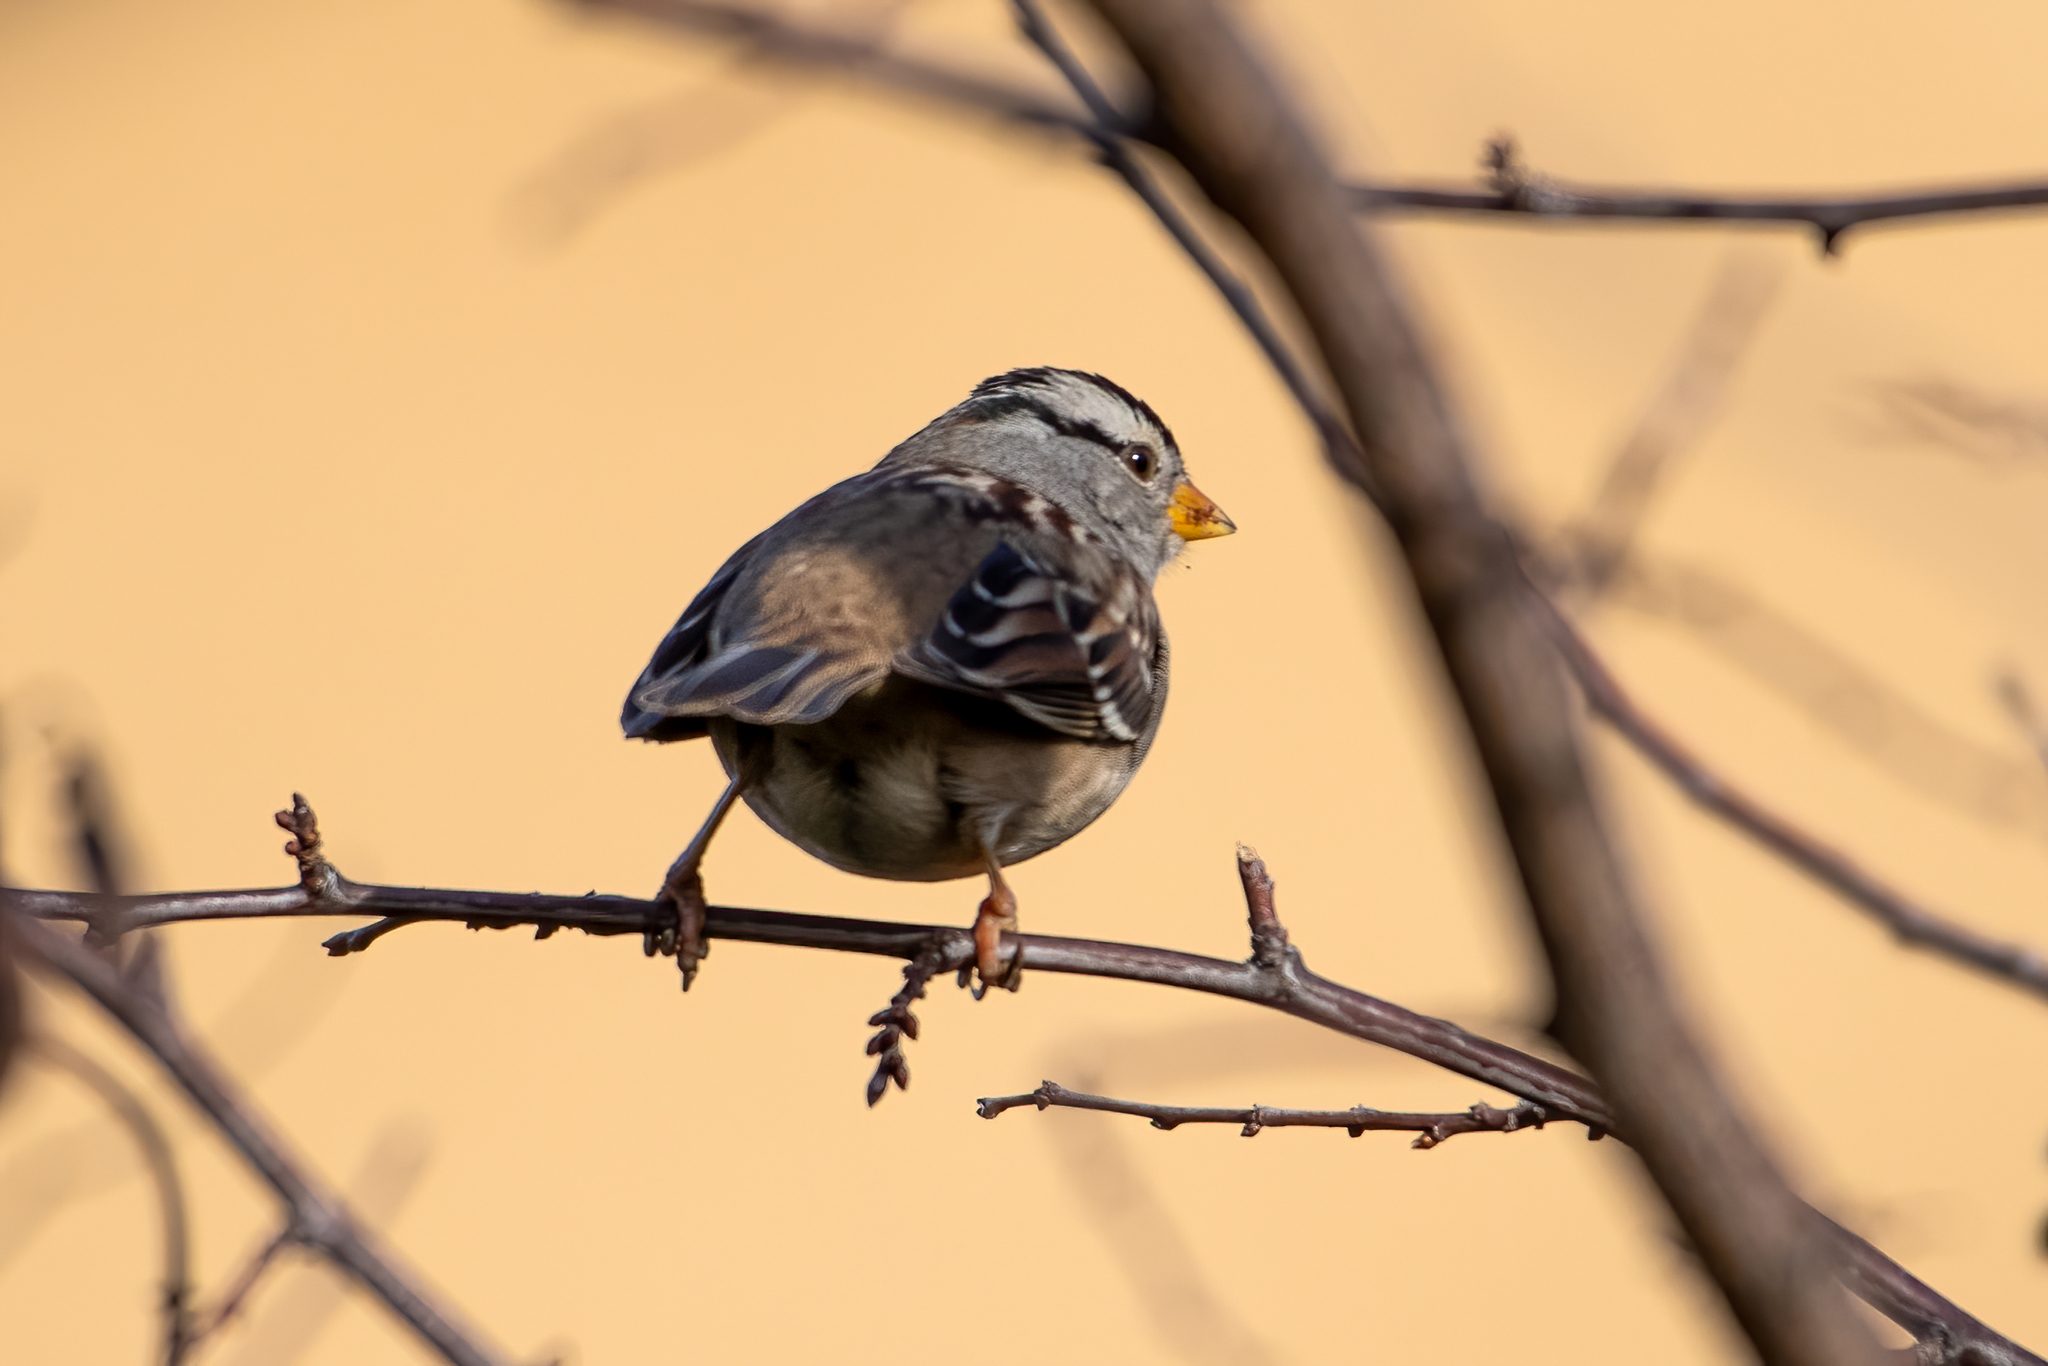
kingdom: Animalia
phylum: Chordata
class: Aves
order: Passeriformes
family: Passerellidae
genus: Zonotrichia
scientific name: Zonotrichia leucophrys
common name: White-crowned sparrow
